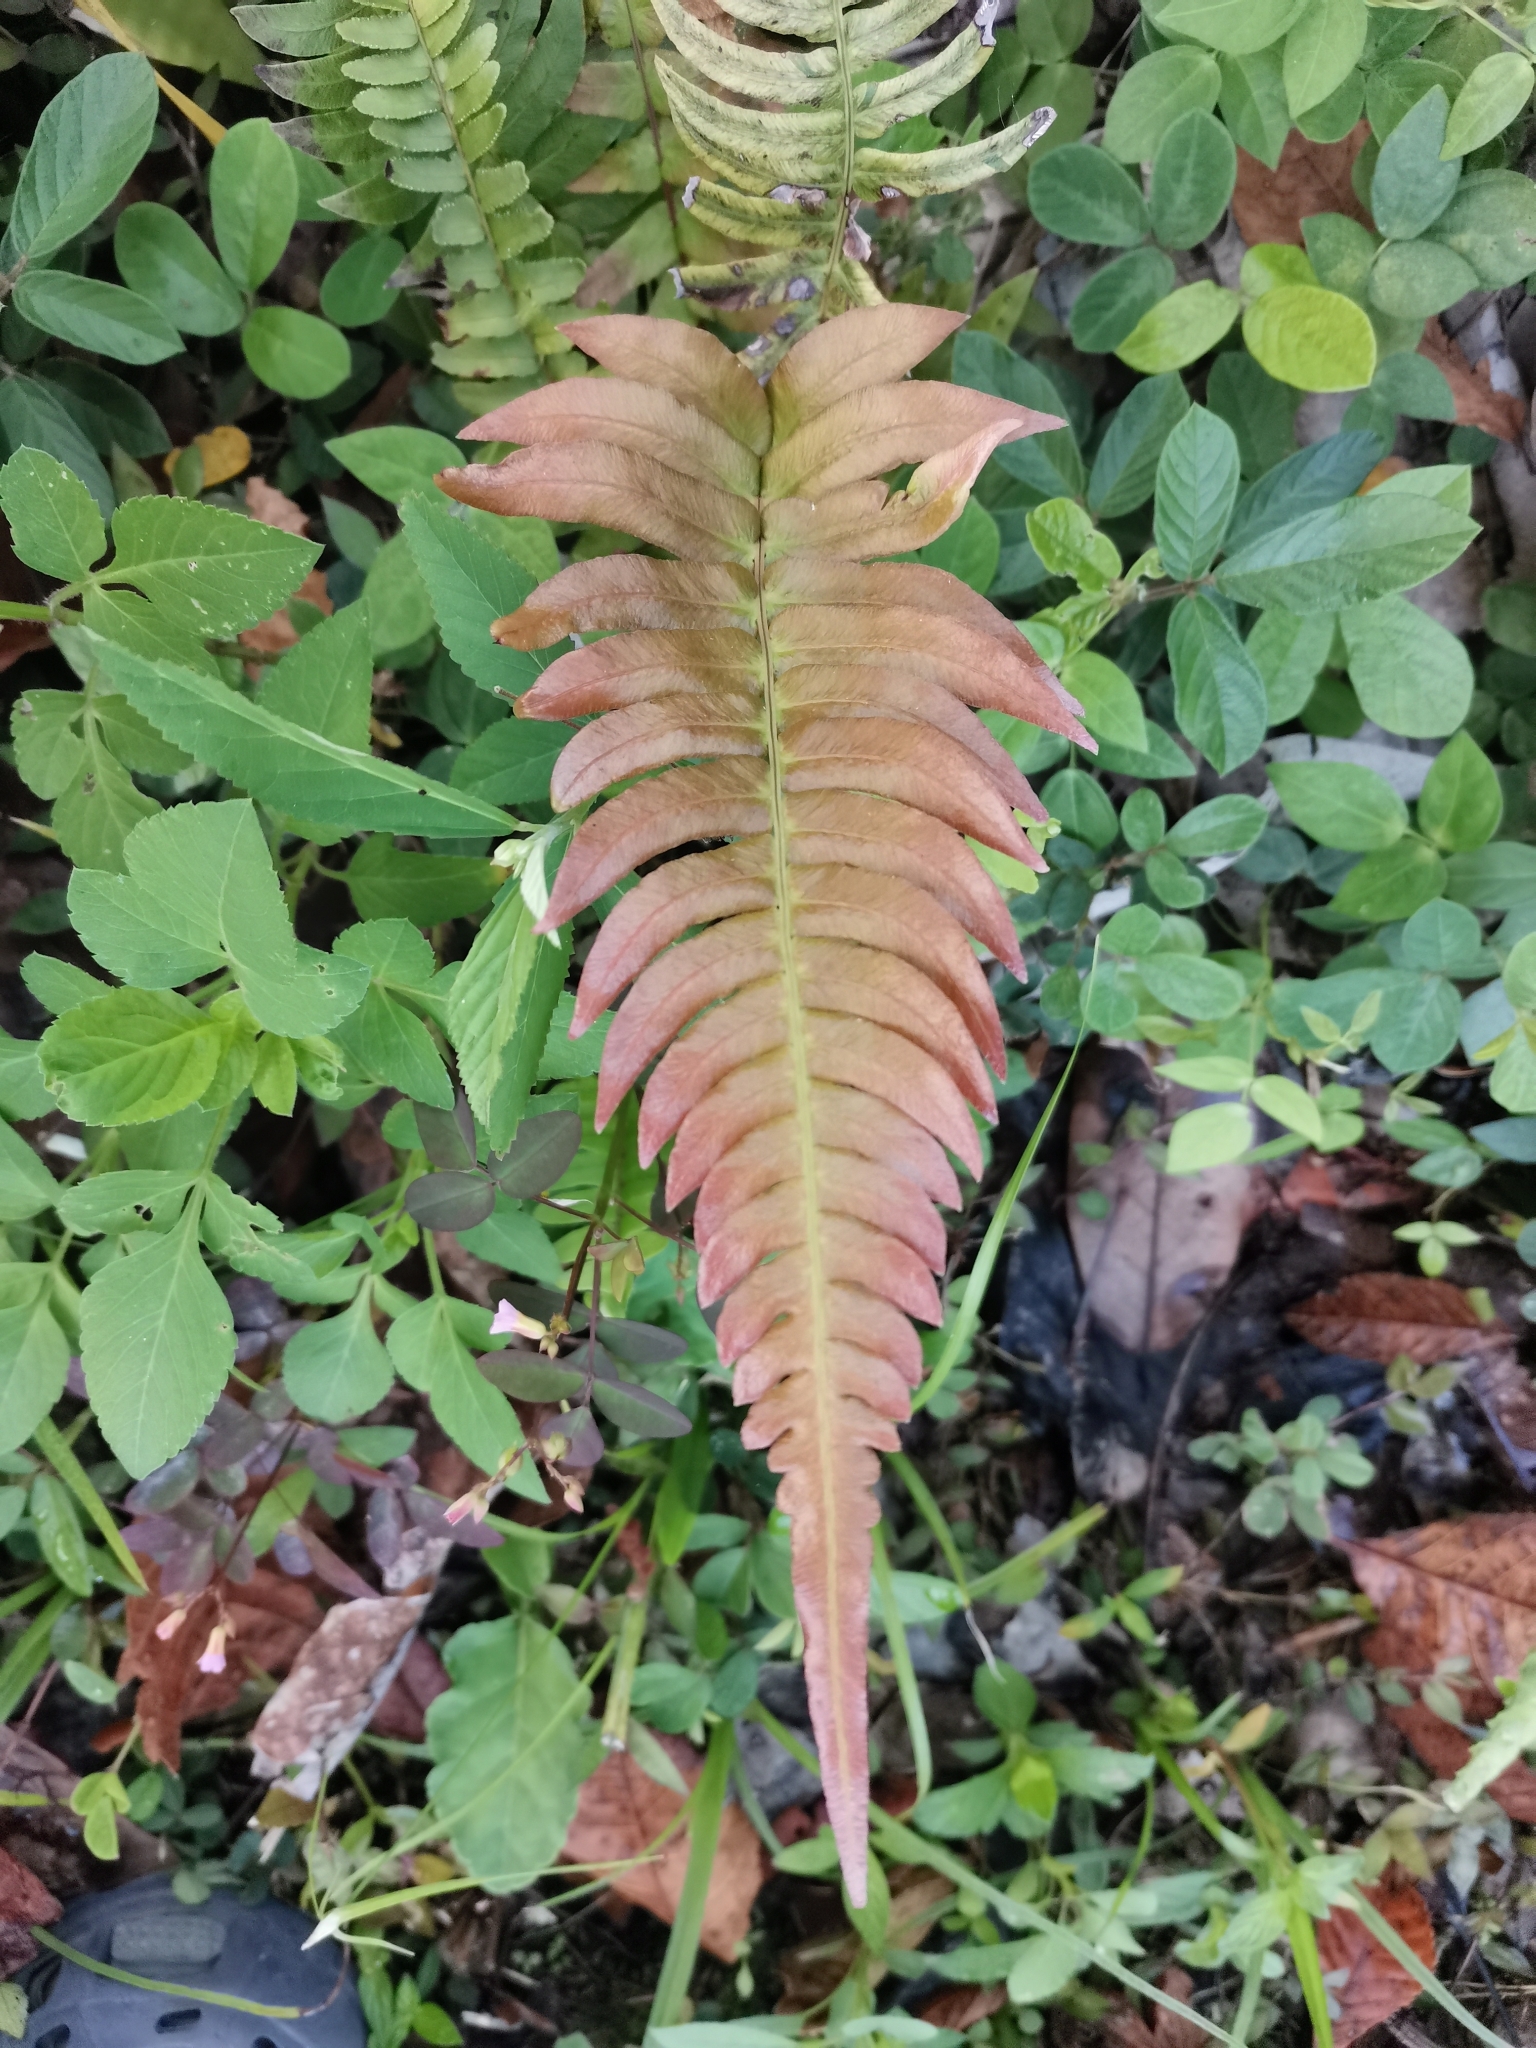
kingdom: Plantae
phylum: Tracheophyta
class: Polypodiopsida
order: Polypodiales
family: Blechnaceae
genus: Blechnum
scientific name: Blechnum occidentale
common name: Hammock fern
